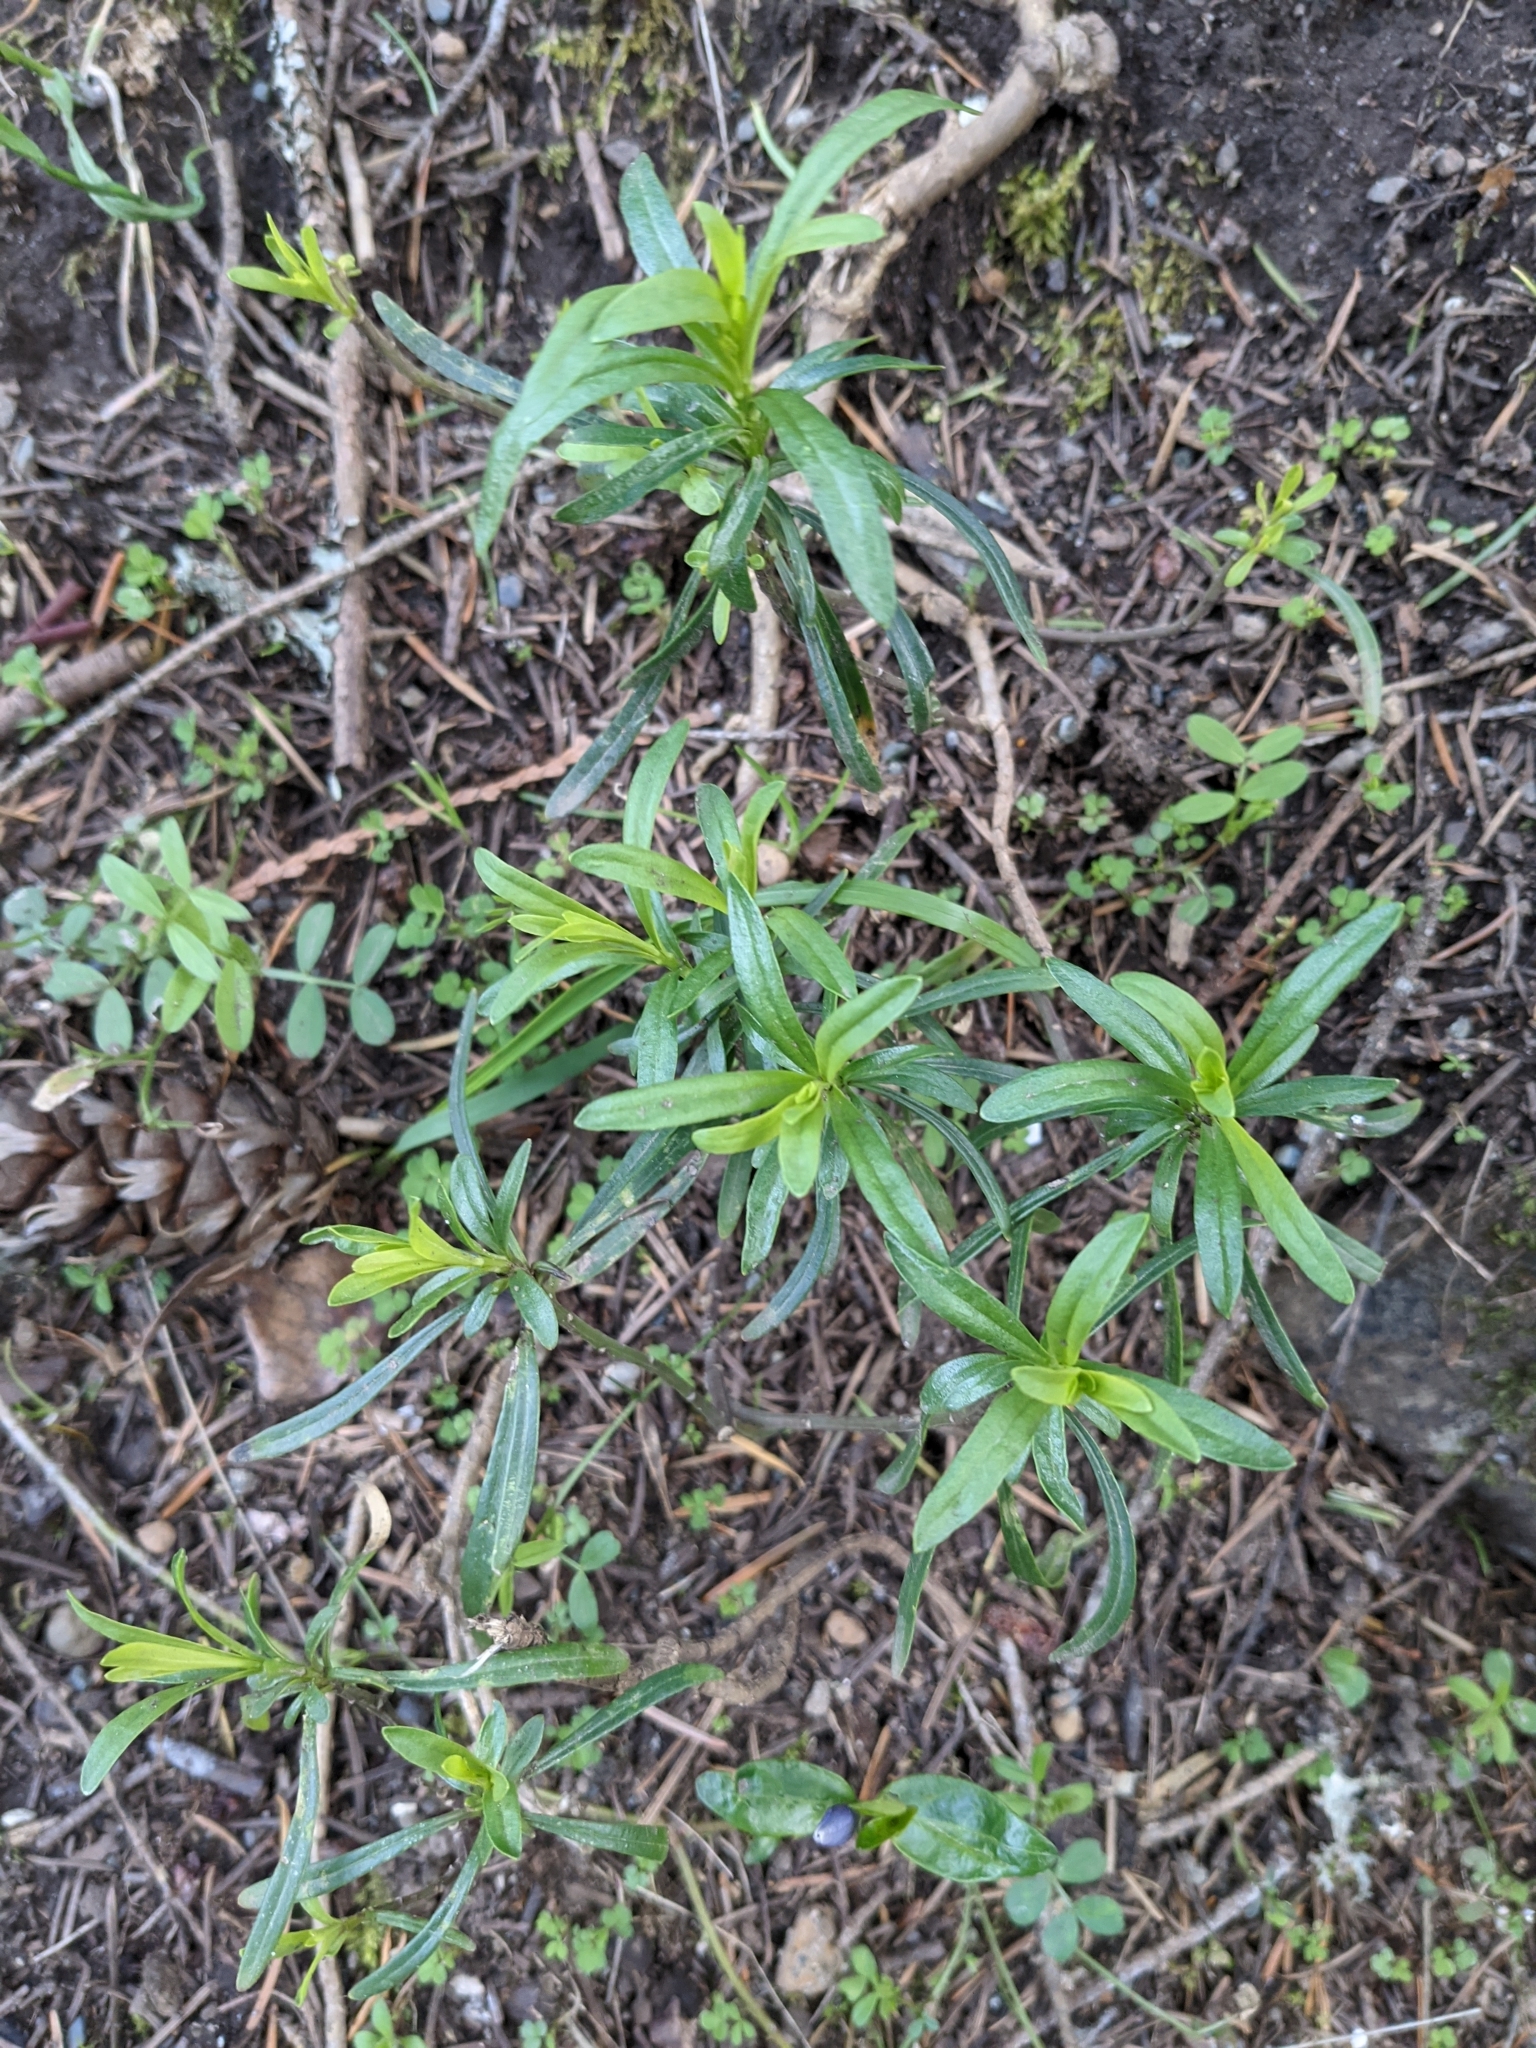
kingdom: Plantae
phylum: Tracheophyta
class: Magnoliopsida
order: Asterales
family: Asteraceae
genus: Anisocarpus
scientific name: Anisocarpus madioides
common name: Woodland madia
